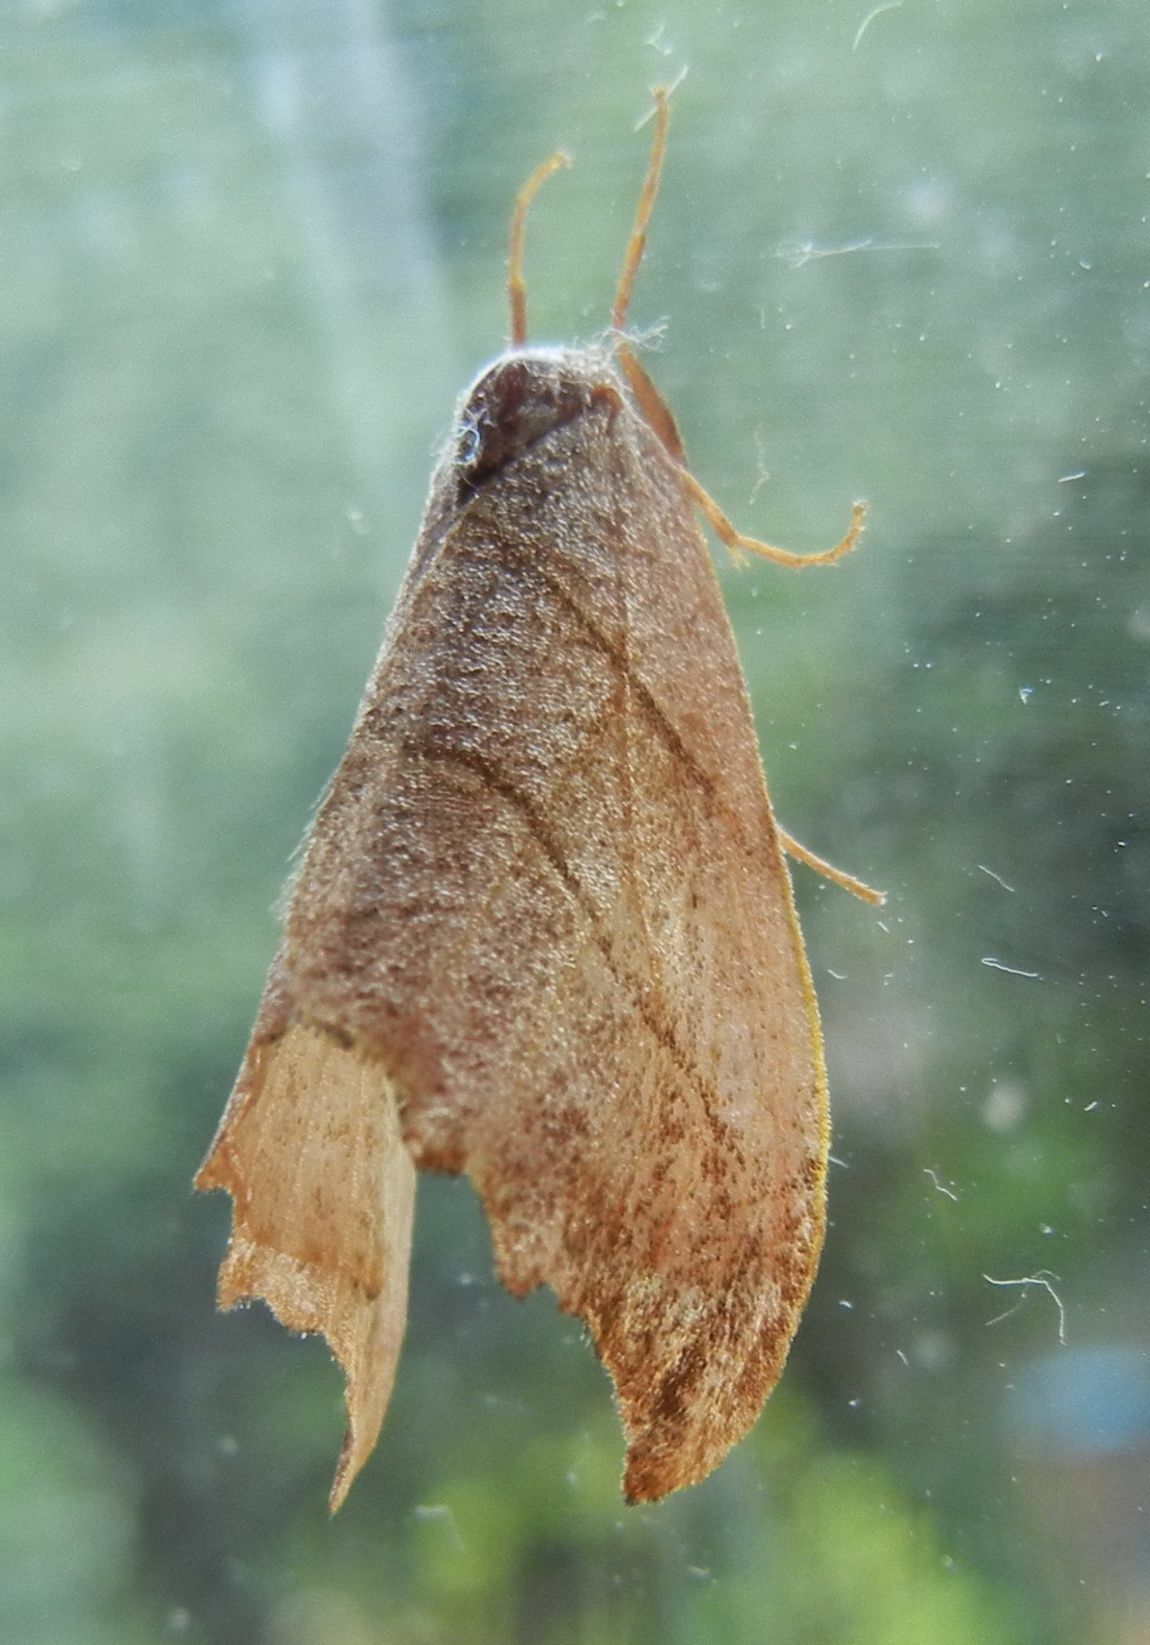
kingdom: Animalia
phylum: Arthropoda
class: Insecta
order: Lepidoptera
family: Drepanidae
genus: Falcaria
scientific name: Falcaria lacertinaria
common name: Scalloped hook-tip
